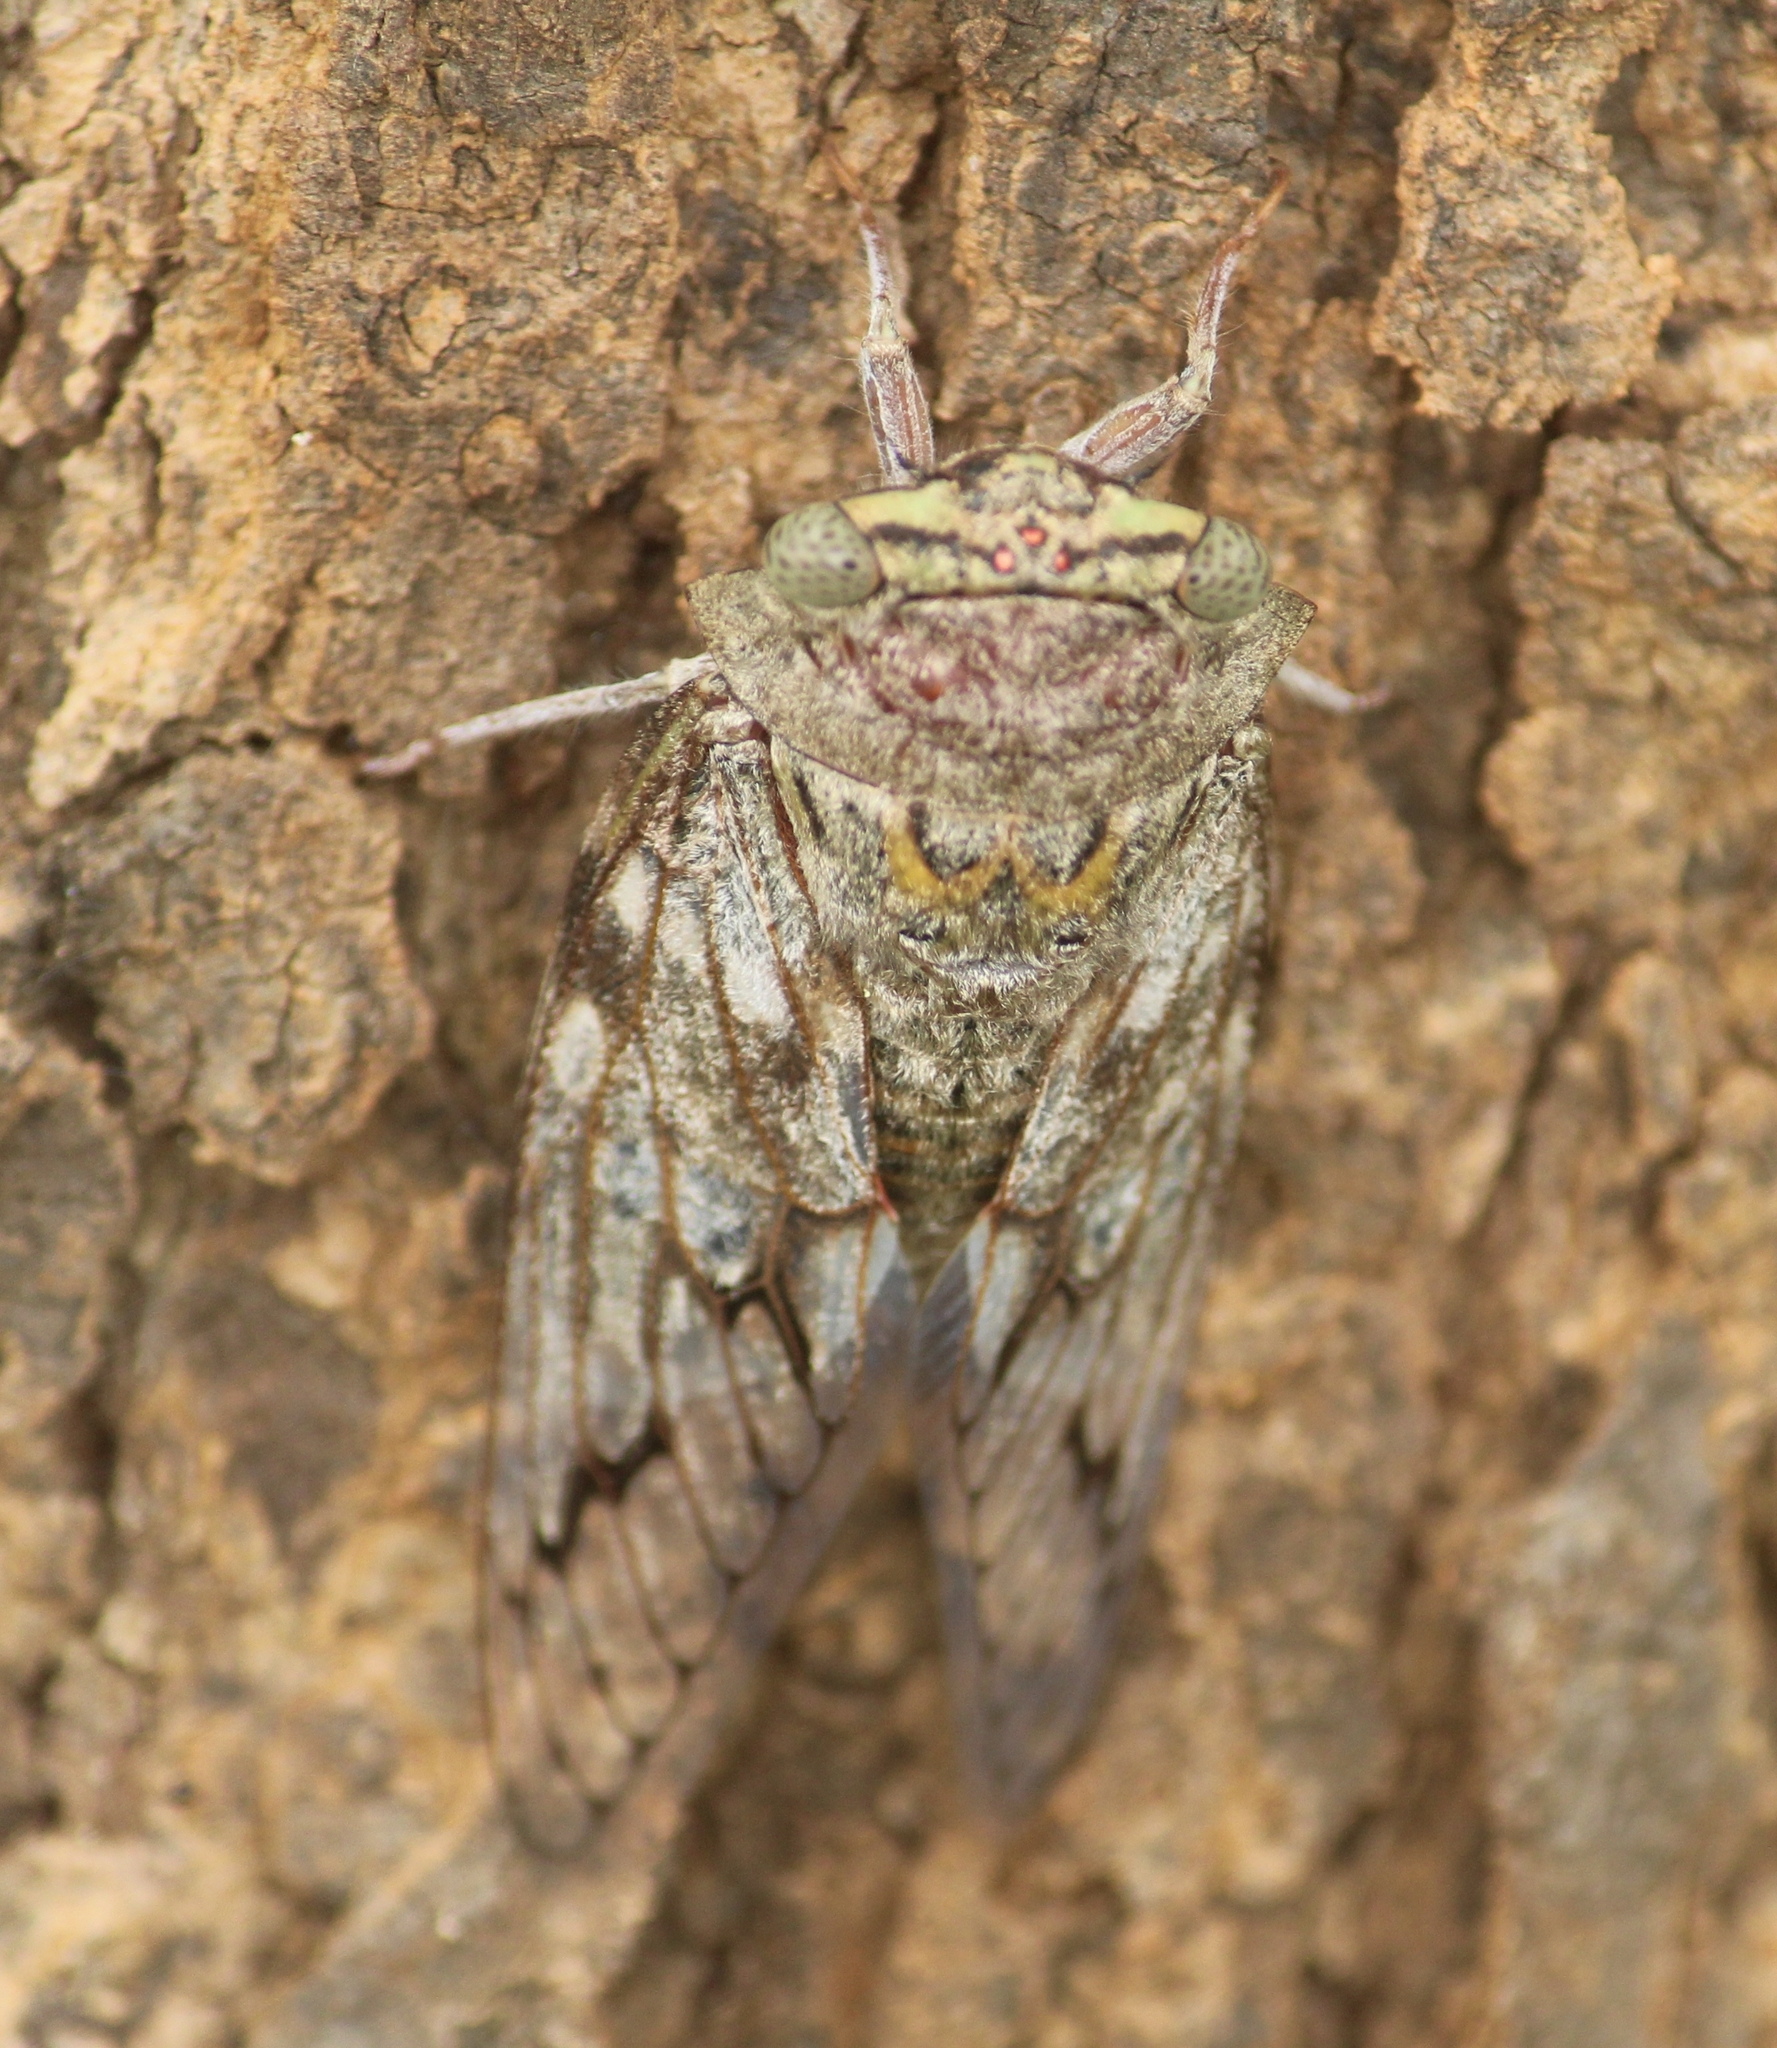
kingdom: Animalia
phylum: Arthropoda
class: Insecta
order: Hemiptera
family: Cicadidae
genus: Platypleura
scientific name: Platypleura octoguttata
